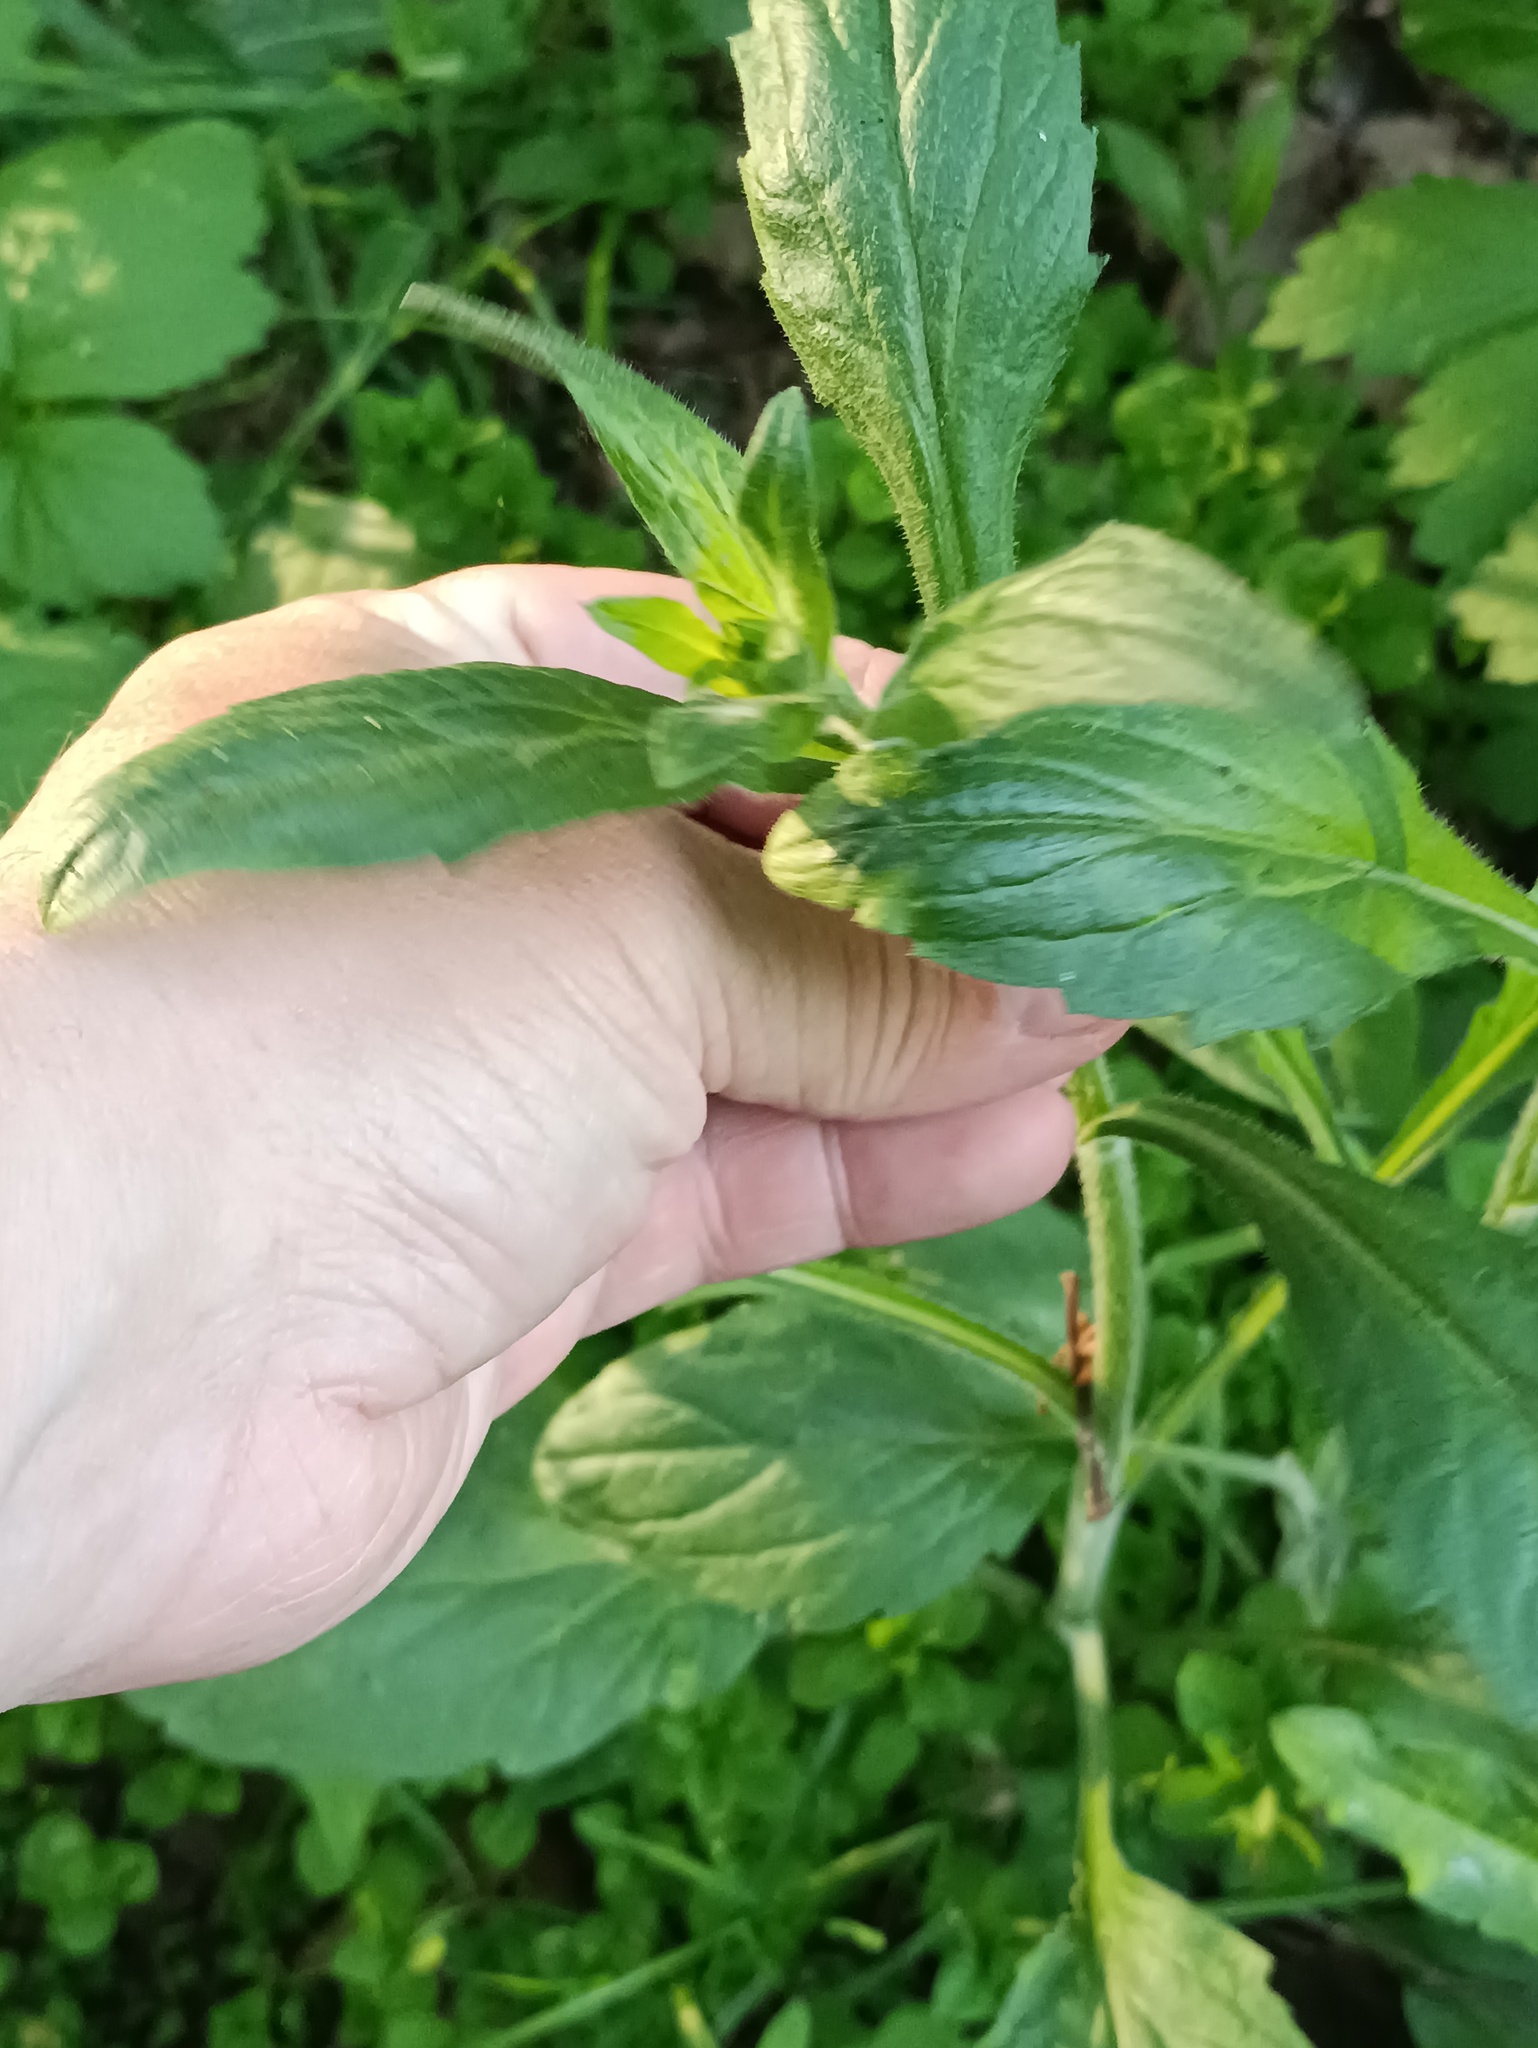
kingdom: Plantae
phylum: Tracheophyta
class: Magnoliopsida
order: Asterales
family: Asteraceae
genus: Erigeron
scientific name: Erigeron annuus
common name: Tall fleabane
